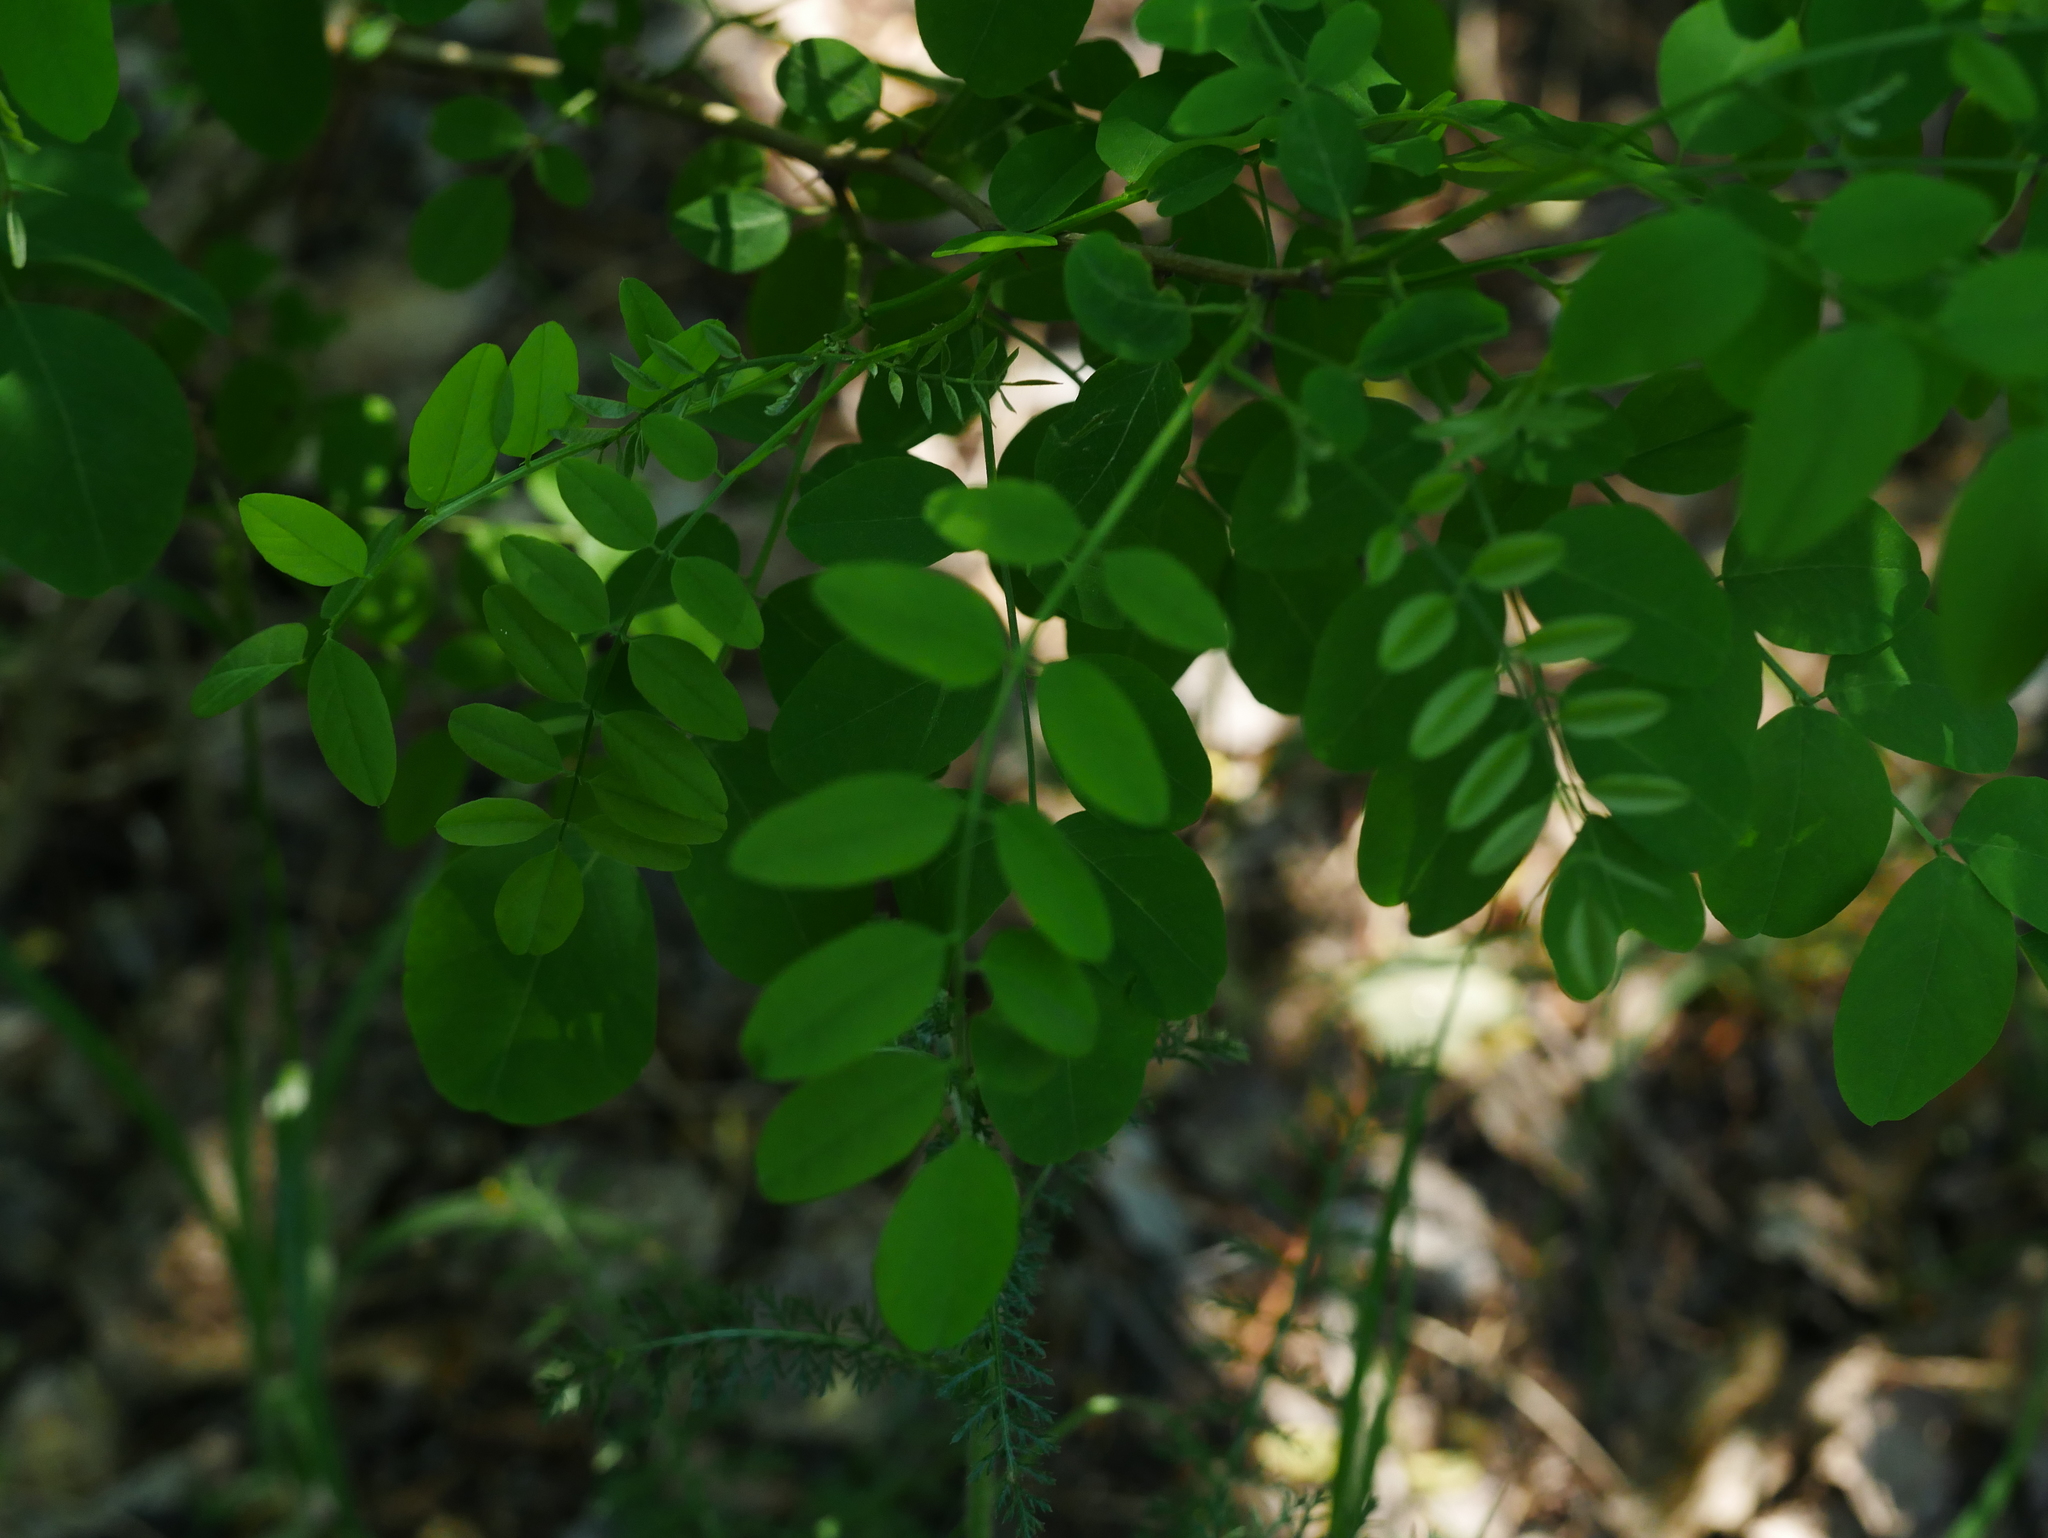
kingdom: Plantae
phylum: Tracheophyta
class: Magnoliopsida
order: Fabales
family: Fabaceae
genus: Robinia
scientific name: Robinia pseudoacacia
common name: Black locust
